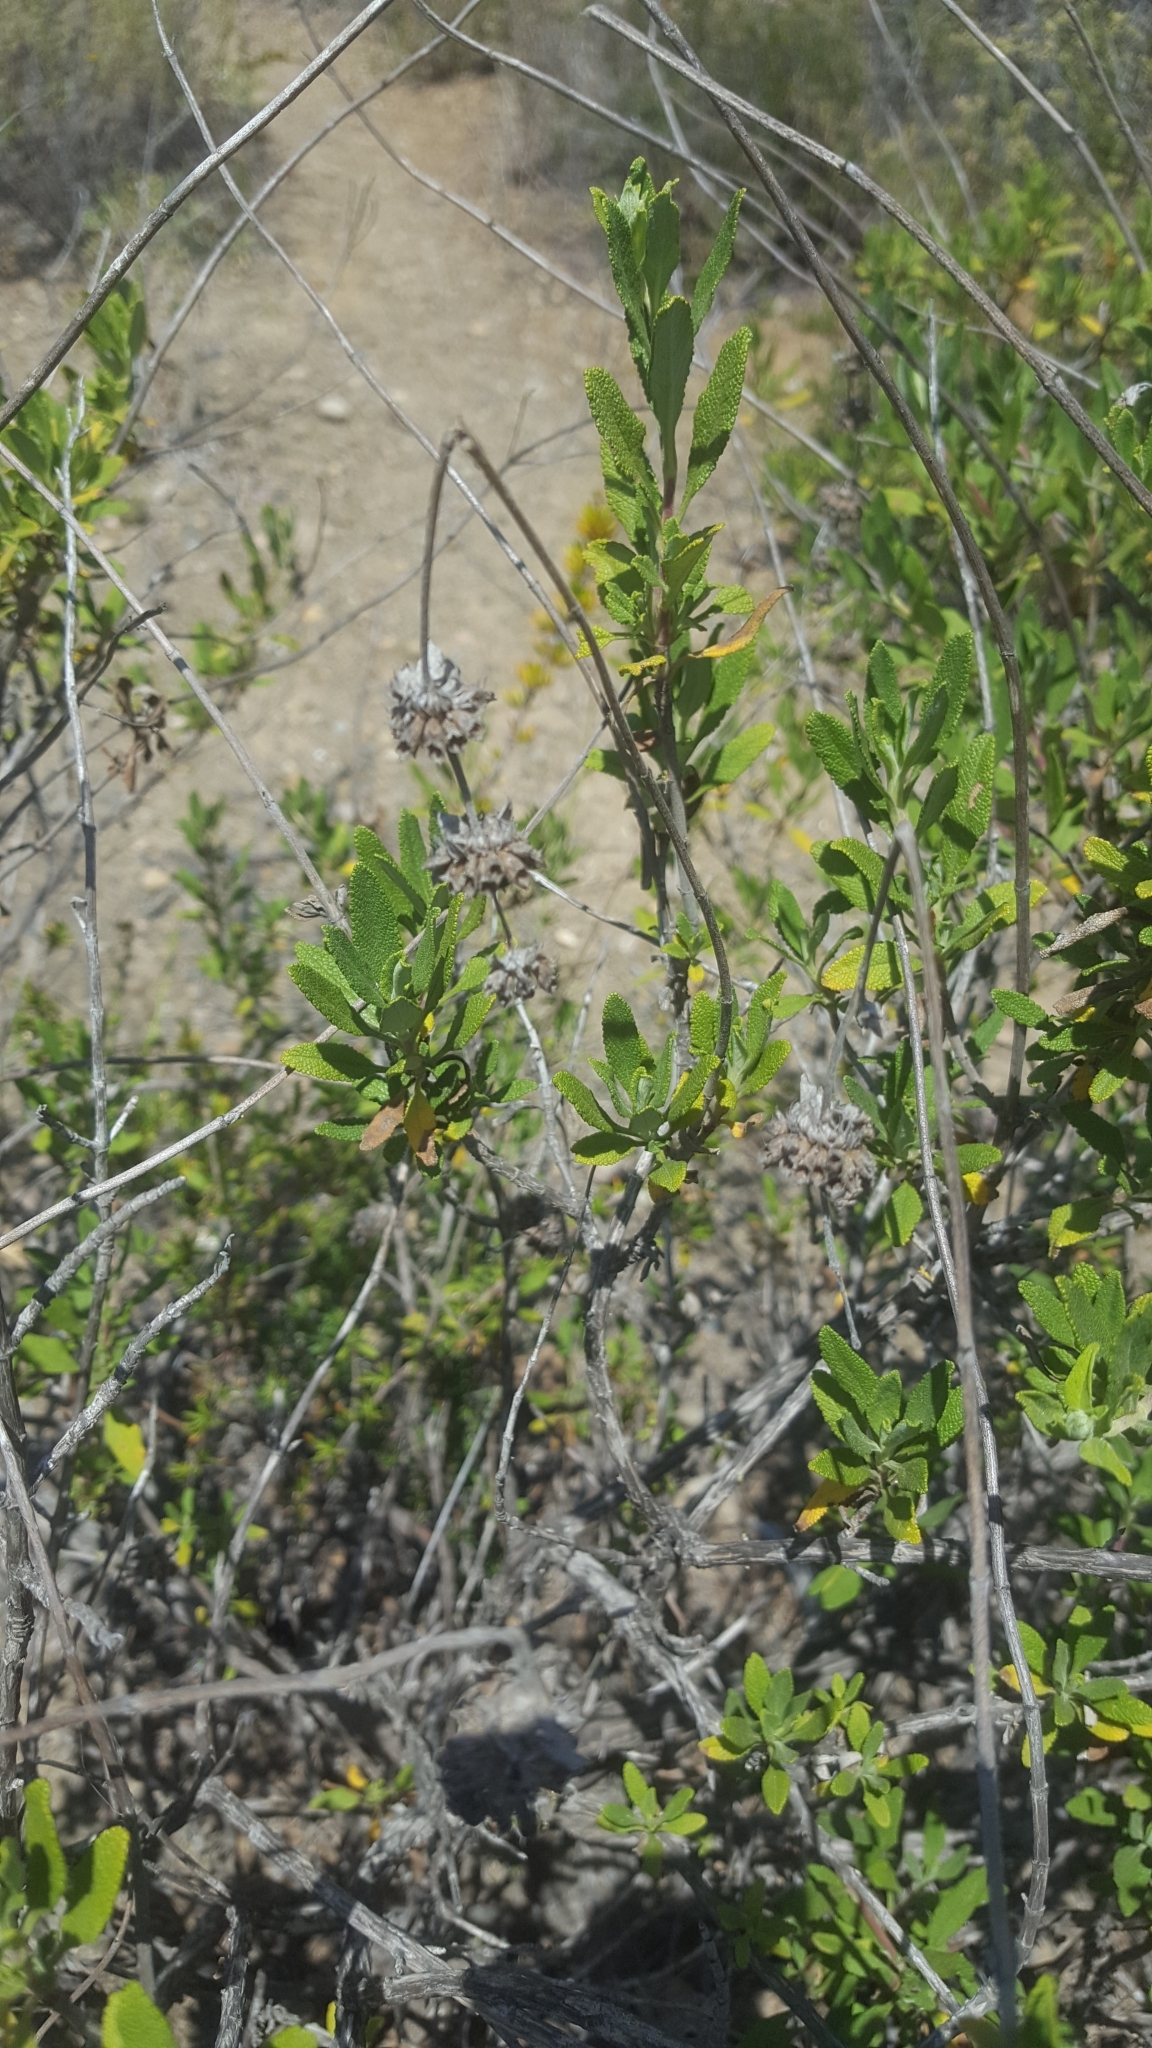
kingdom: Plantae
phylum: Tracheophyta
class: Magnoliopsida
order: Lamiales
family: Lamiaceae
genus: Salvia
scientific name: Salvia mellifera
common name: Black sage
